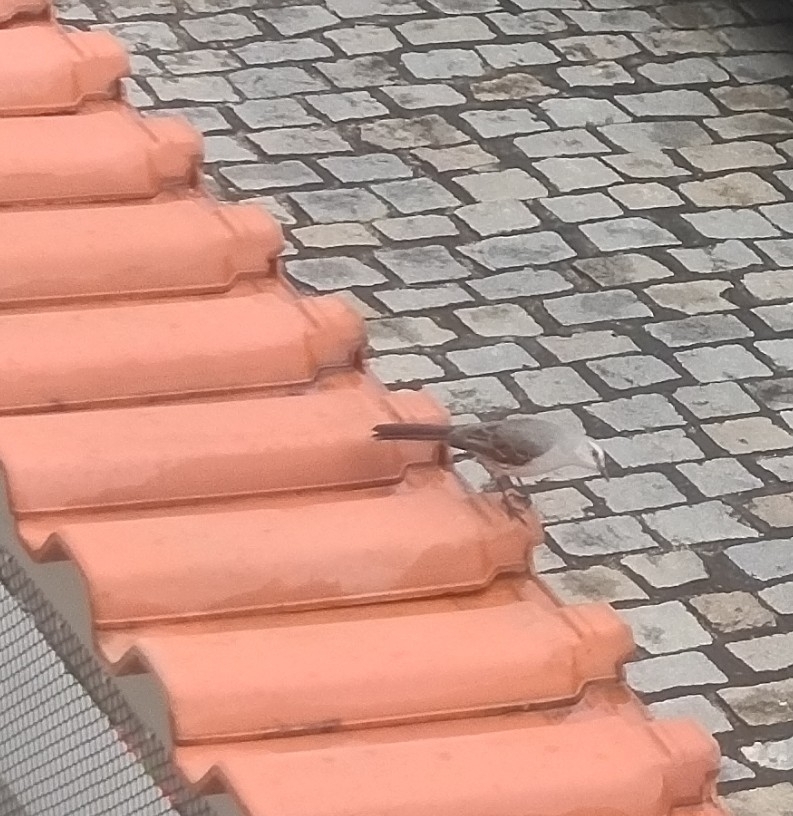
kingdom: Animalia
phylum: Chordata
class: Aves
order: Passeriformes
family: Mimidae
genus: Mimus
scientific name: Mimus gilvus
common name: Tropical mockingbird
